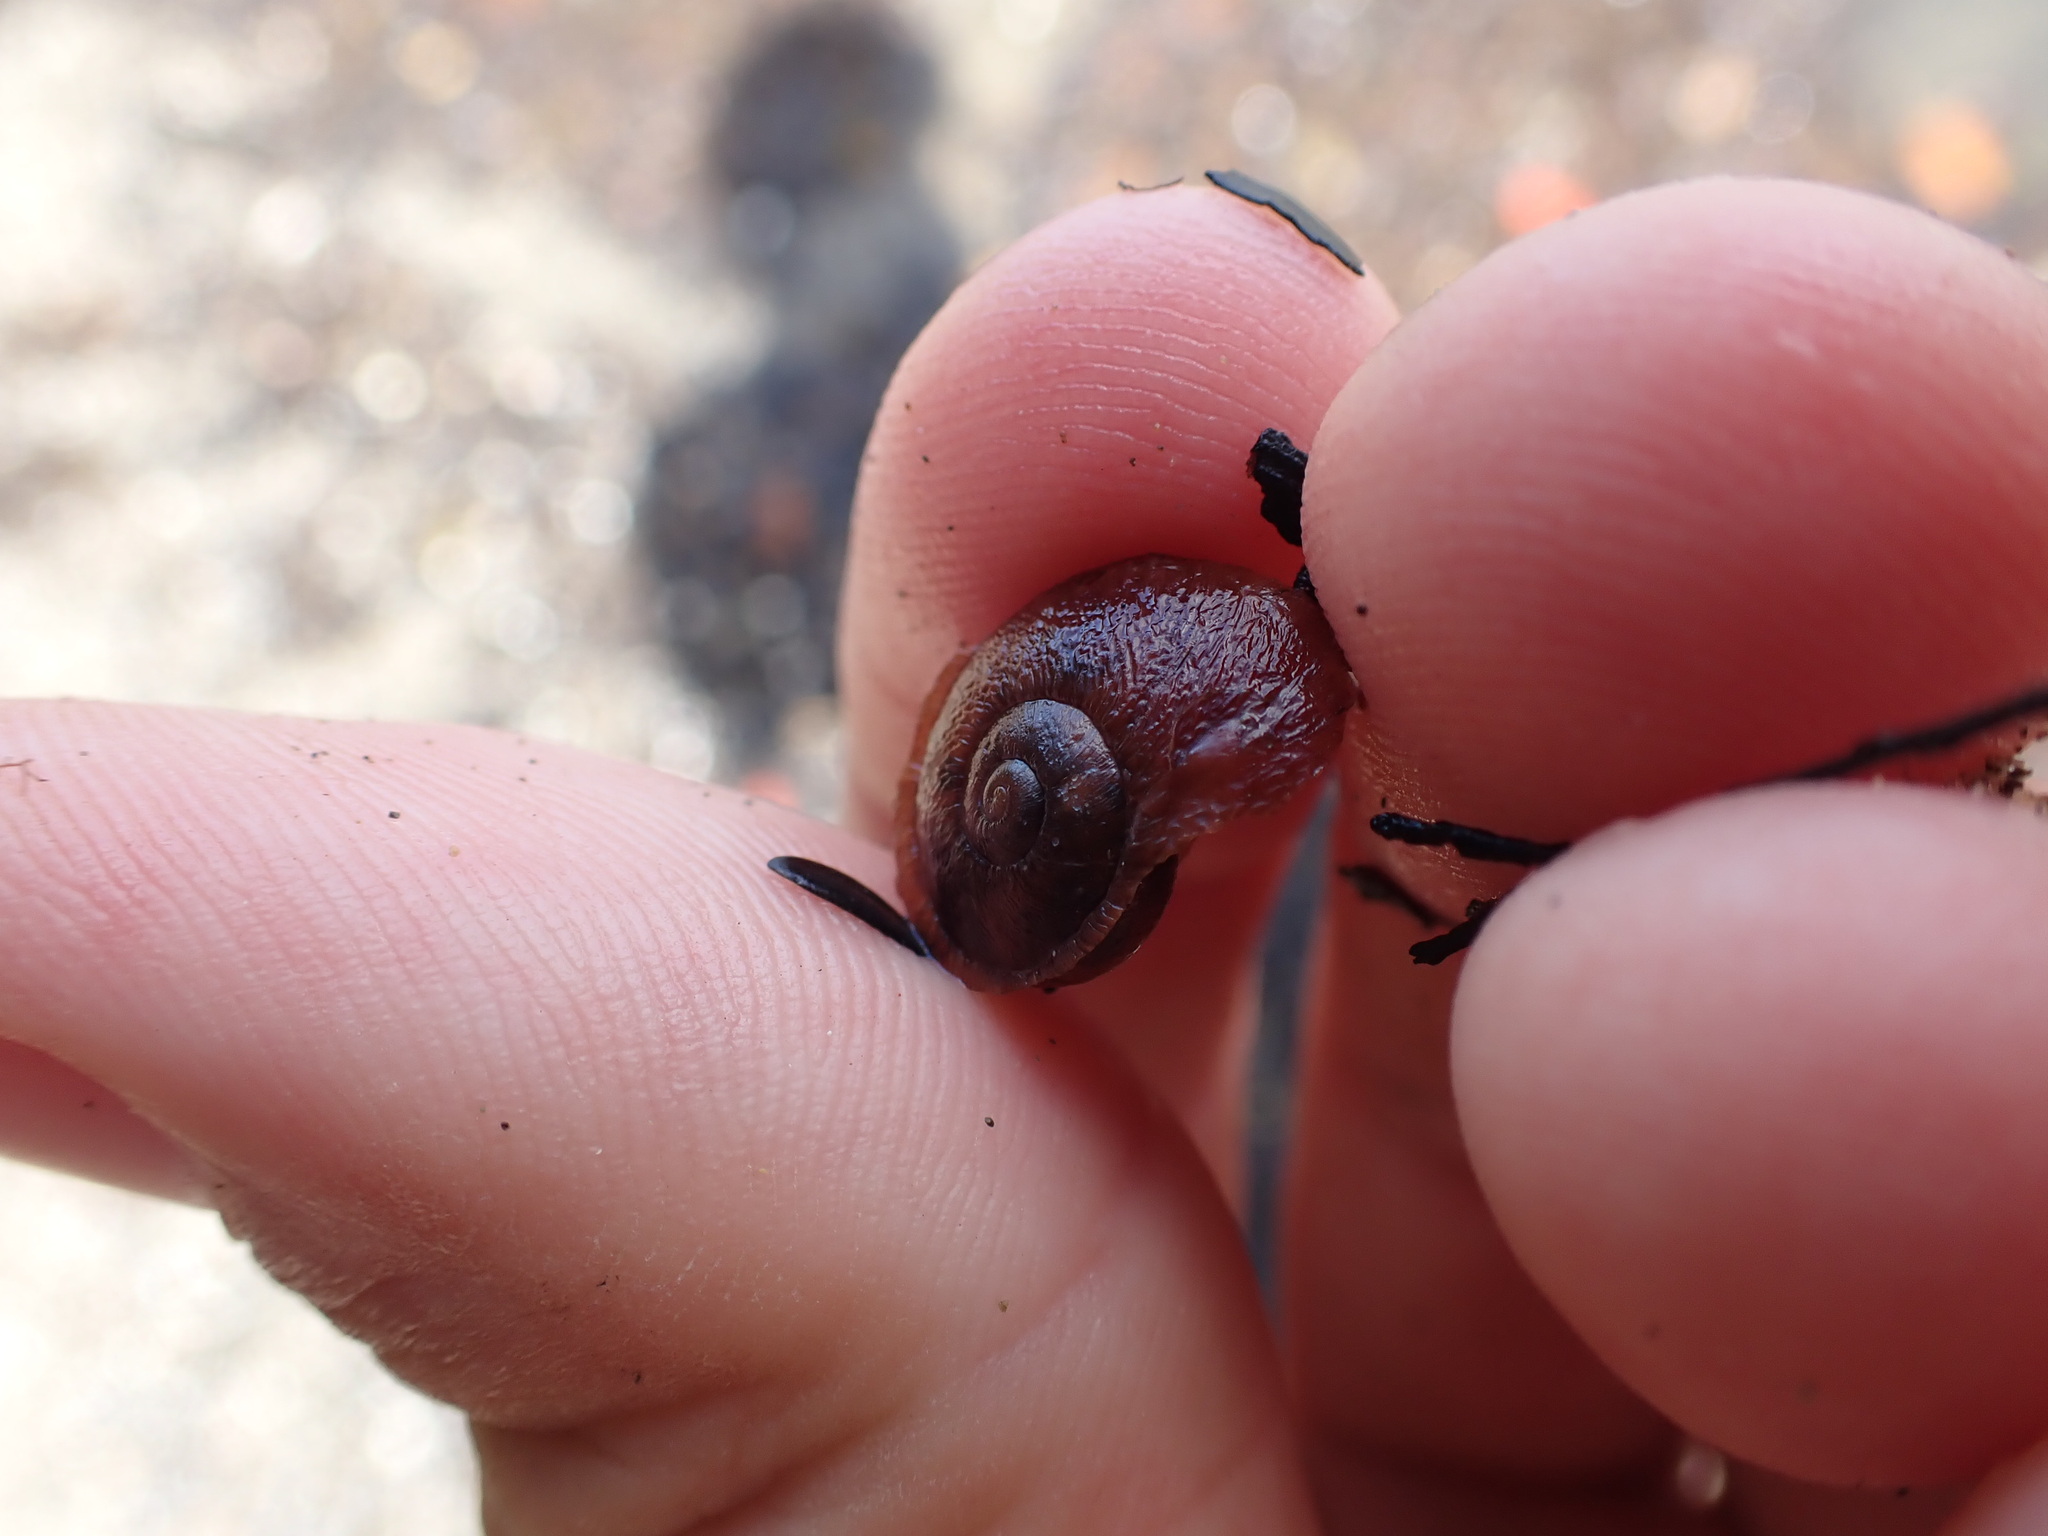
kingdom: Animalia
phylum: Mollusca
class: Gastropoda
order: Stylommatophora
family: Rhytididae
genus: Rhytida
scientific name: Rhytida greenwoodi
